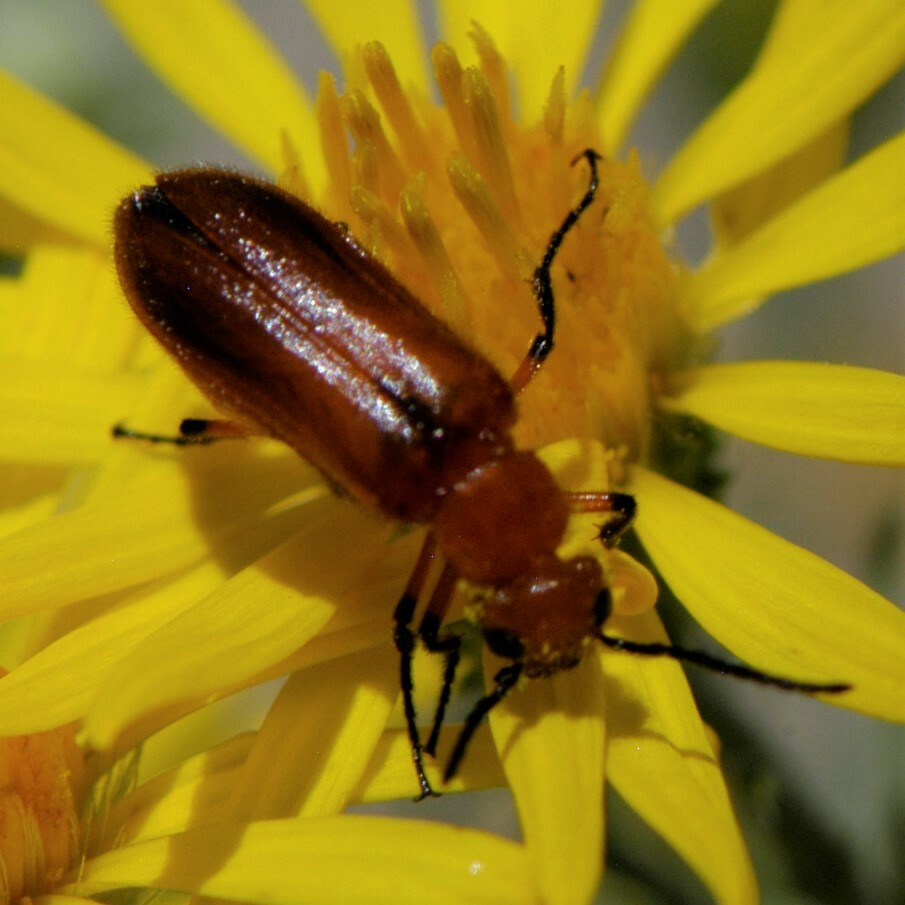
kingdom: Animalia
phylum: Arthropoda
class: Insecta
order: Coleoptera
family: Meloidae
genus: Nemognatha
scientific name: Nemognatha nigripennis
